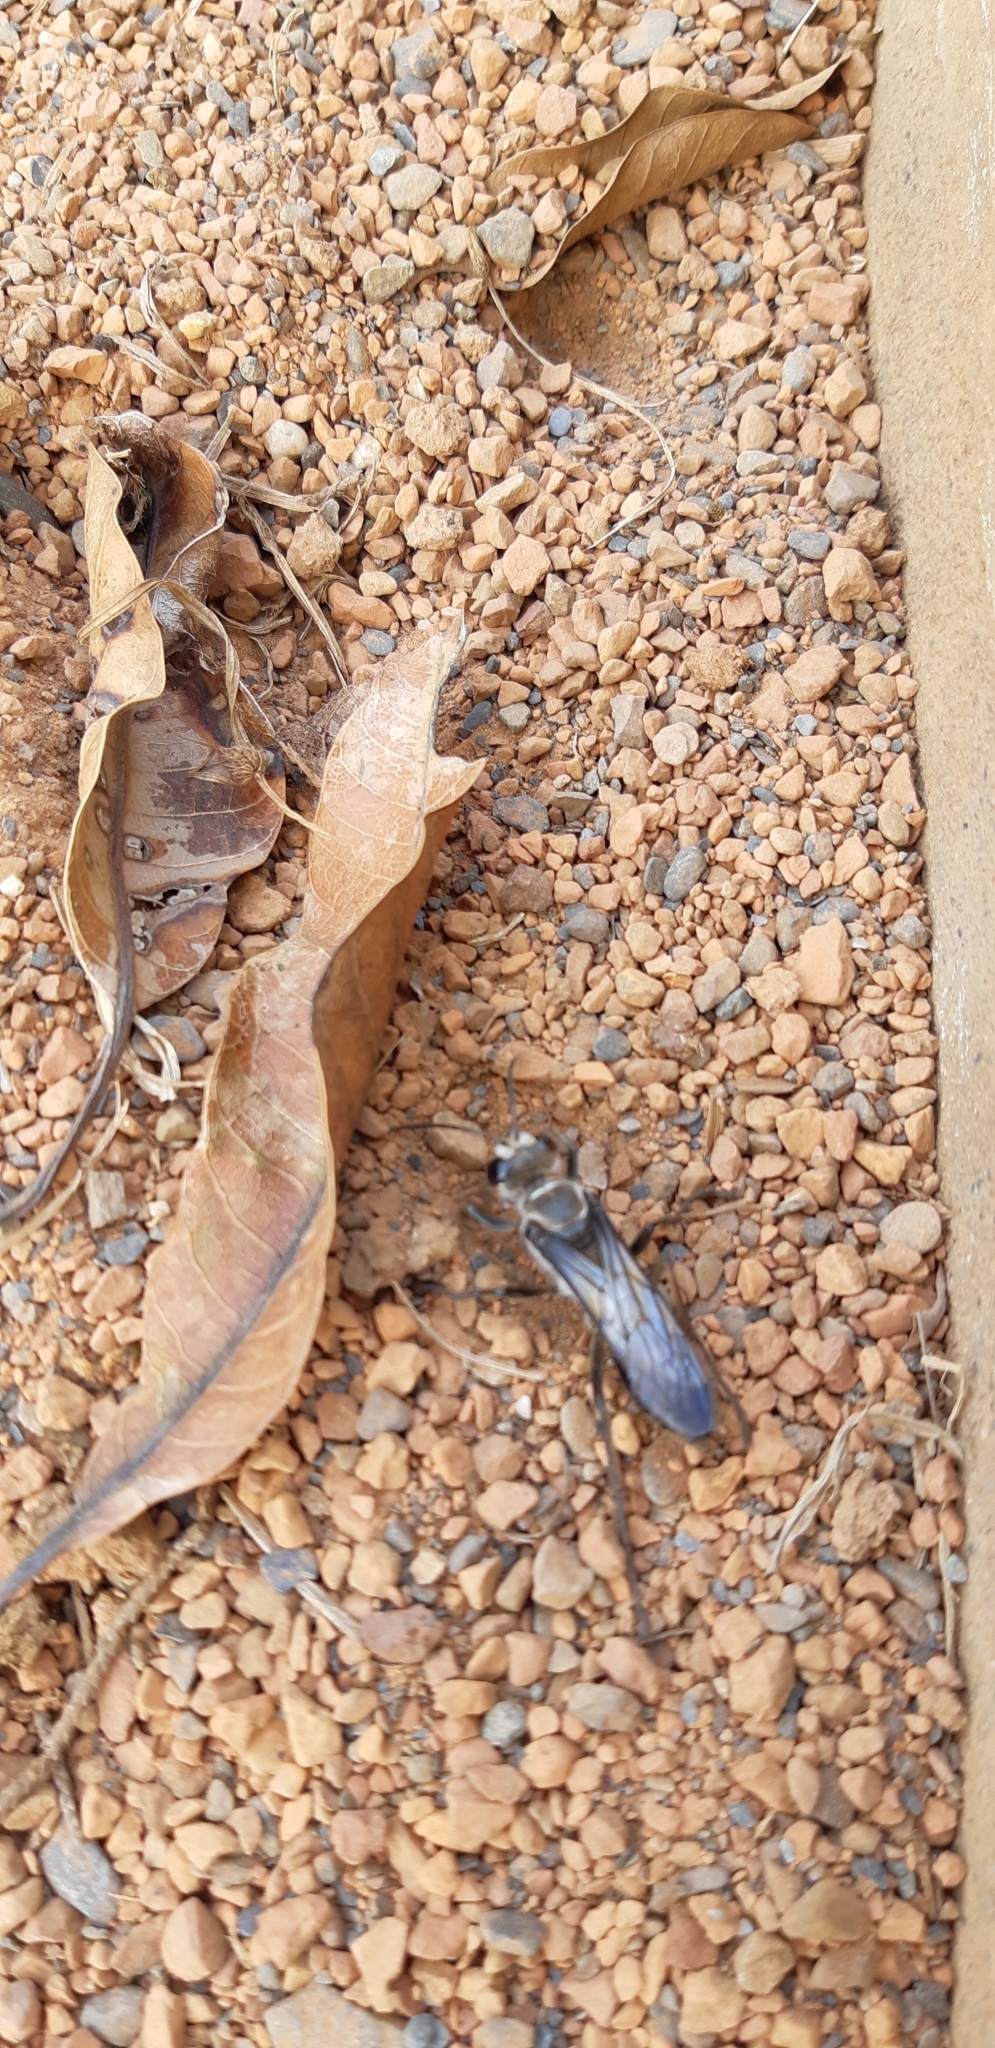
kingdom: Animalia
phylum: Arthropoda
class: Insecta
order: Hymenoptera
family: Sphecidae
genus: Sphex
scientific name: Sphex argentatus
